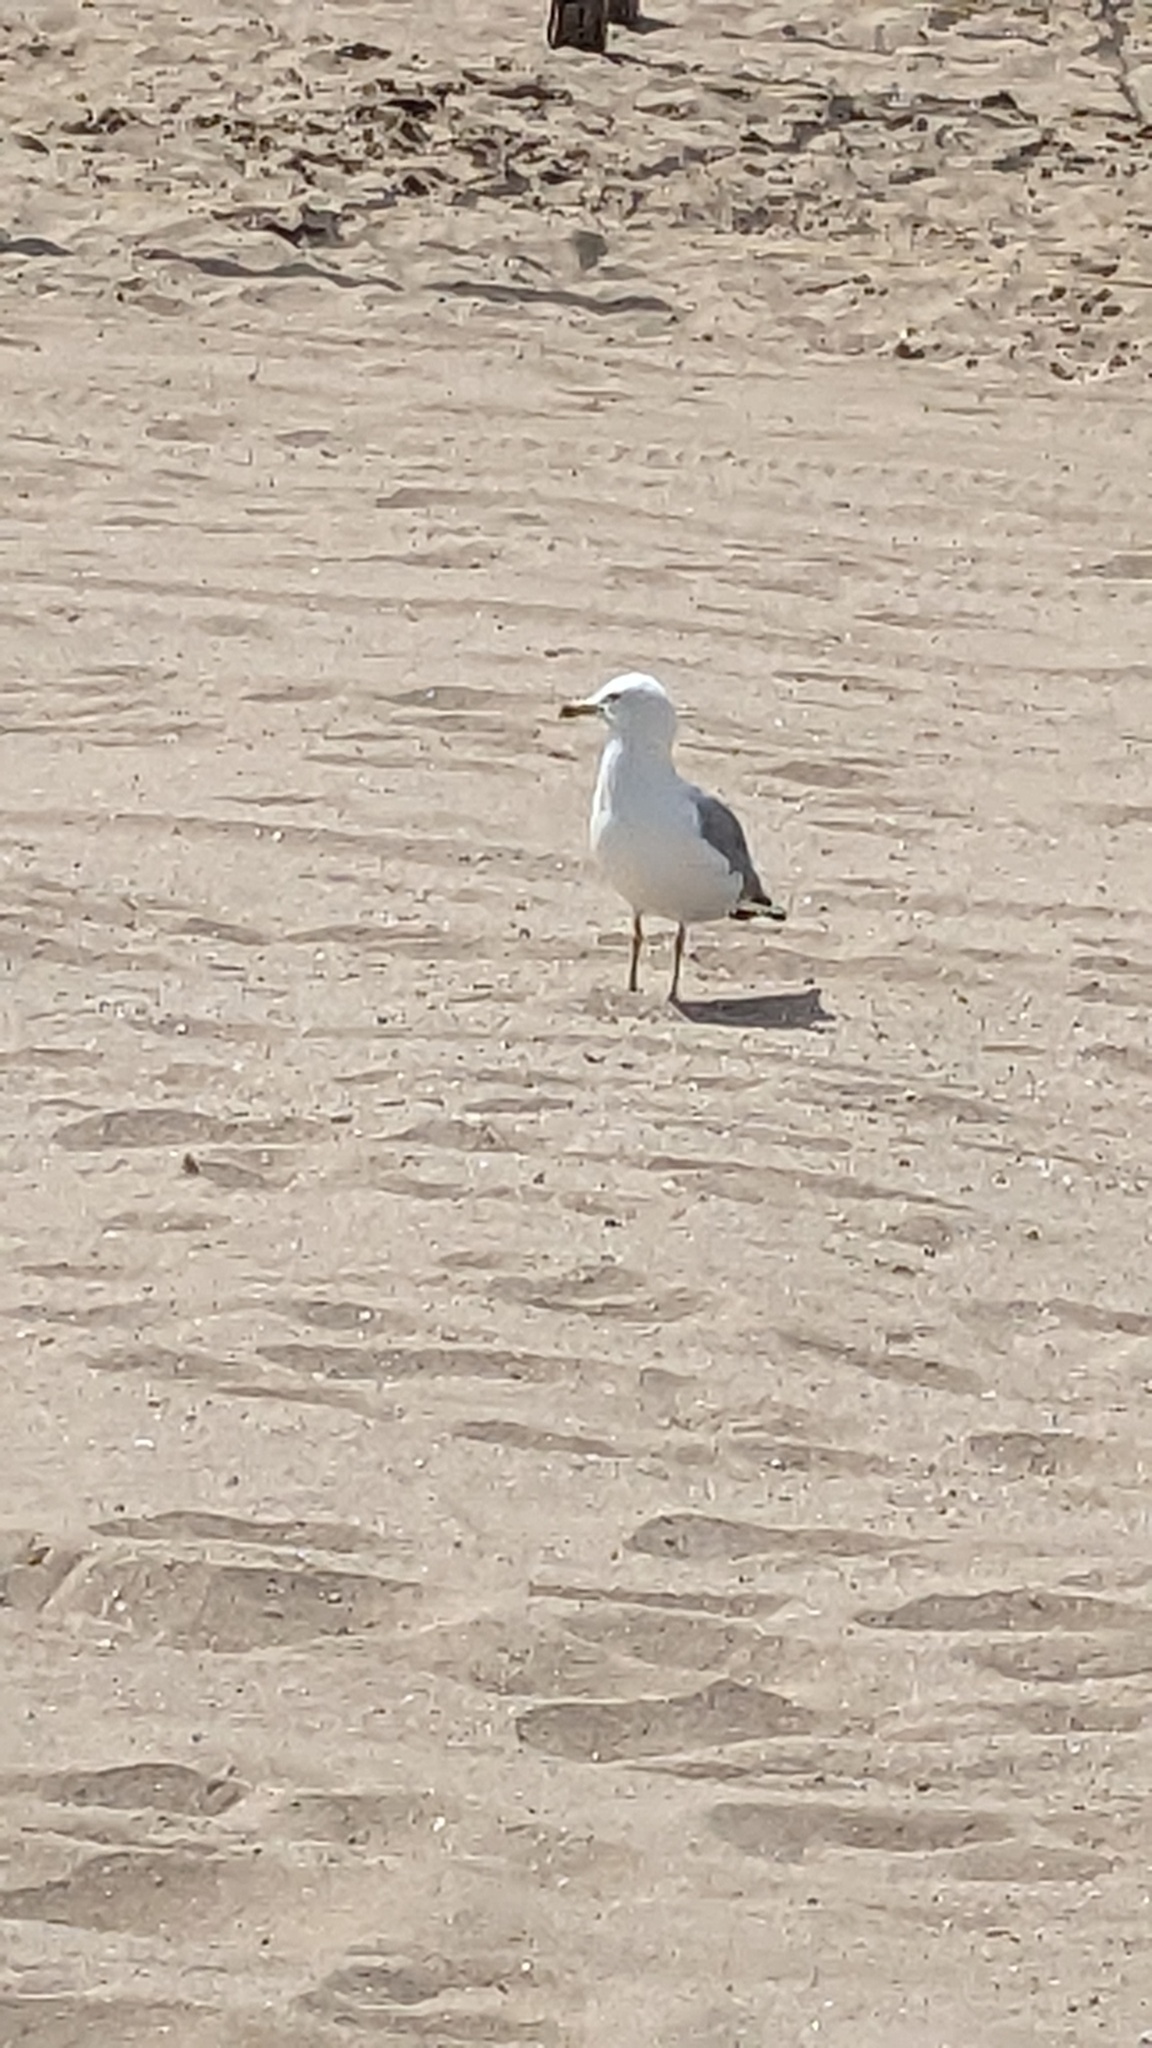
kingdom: Animalia
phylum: Chordata
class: Aves
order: Charadriiformes
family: Laridae
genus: Larus
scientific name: Larus delawarensis
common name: Ring-billed gull
